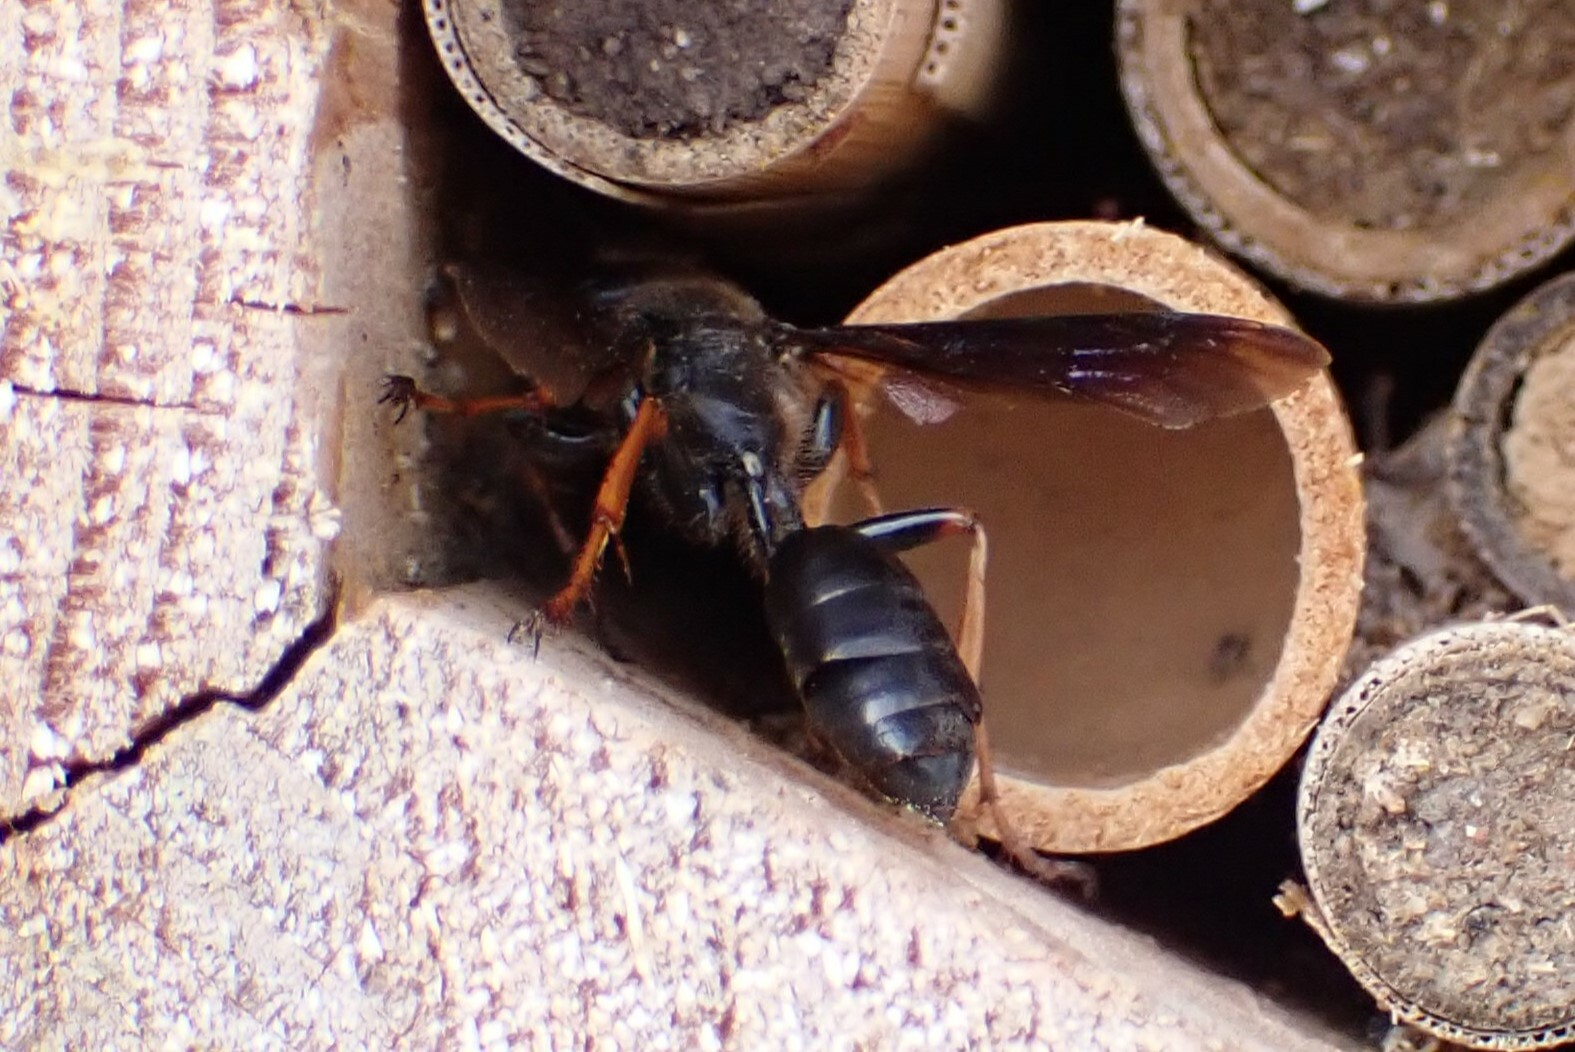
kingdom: Animalia
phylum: Arthropoda
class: Insecta
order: Hymenoptera
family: Sphecidae
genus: Isodontia
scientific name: Isodontia auripes
